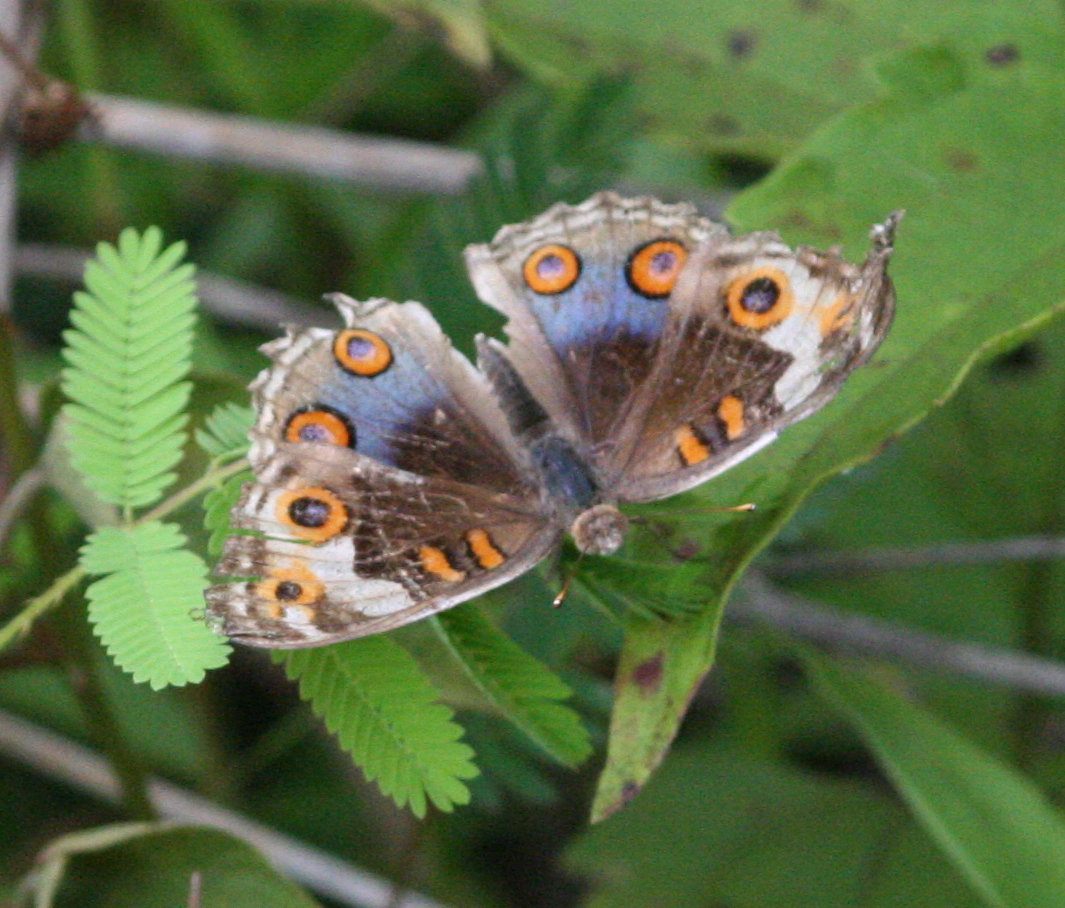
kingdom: Animalia
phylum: Arthropoda
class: Insecta
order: Lepidoptera
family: Nymphalidae
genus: Junonia
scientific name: Junonia orithya
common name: Blue pansy
